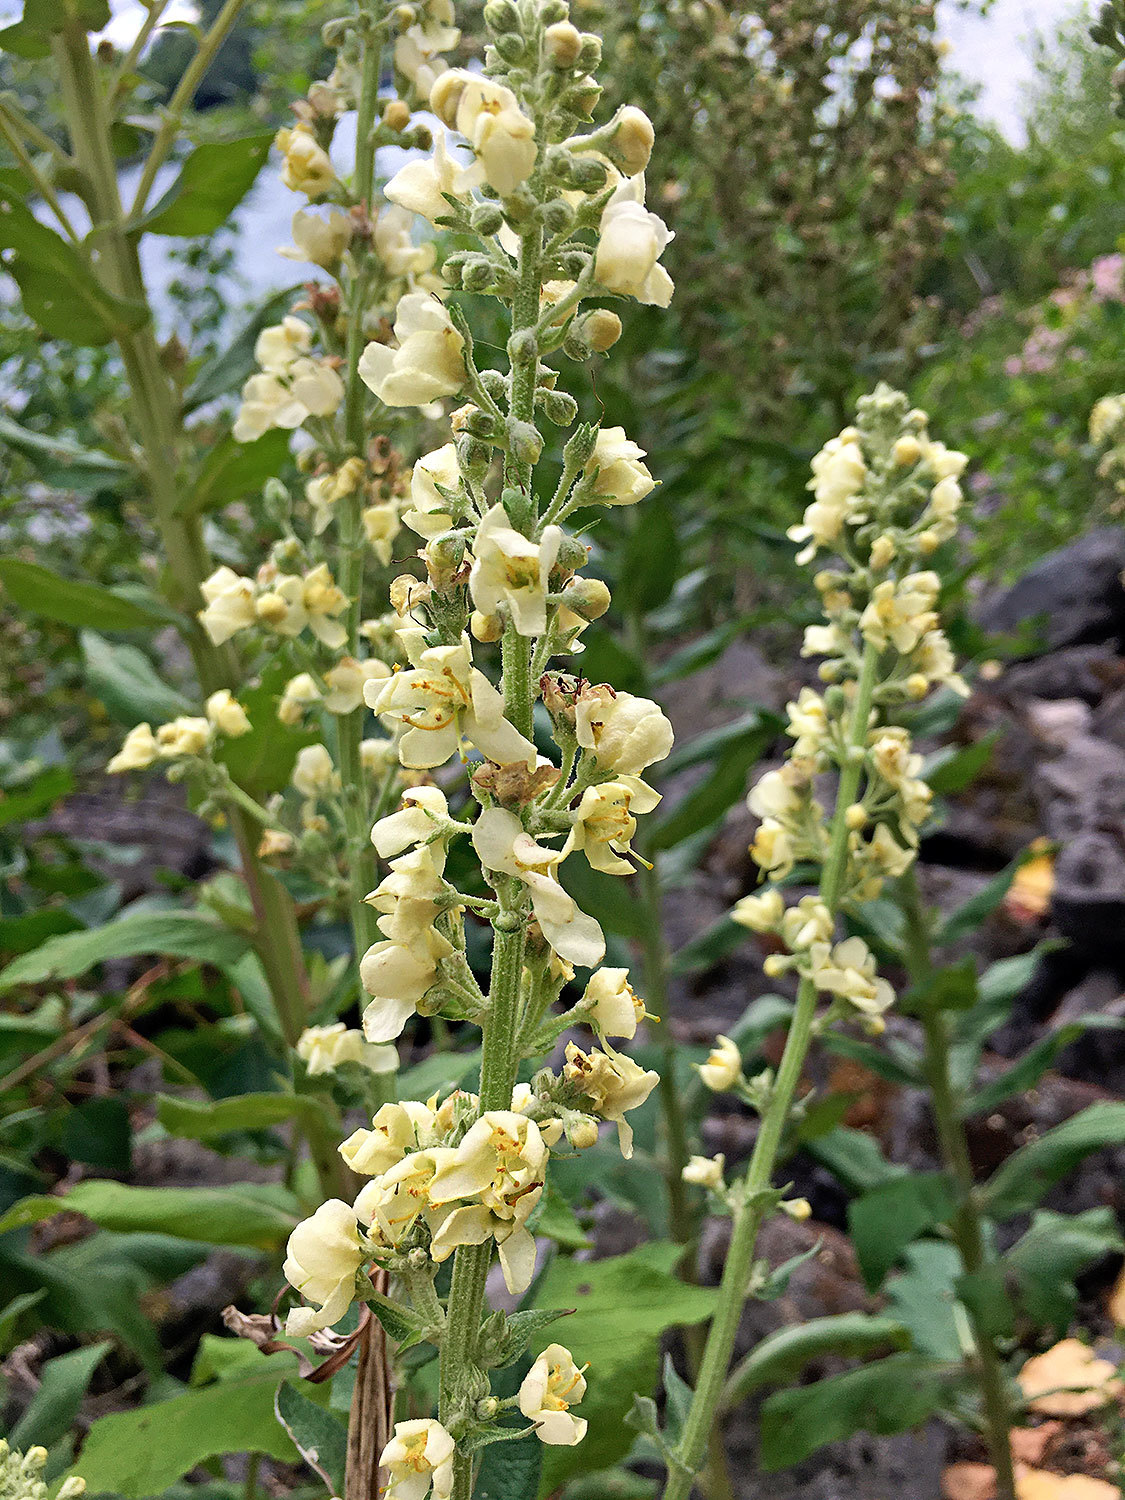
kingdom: Plantae
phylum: Tracheophyta
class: Magnoliopsida
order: Lamiales
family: Scrophulariaceae
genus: Verbascum
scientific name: Verbascum lychnitis
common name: White mullein
